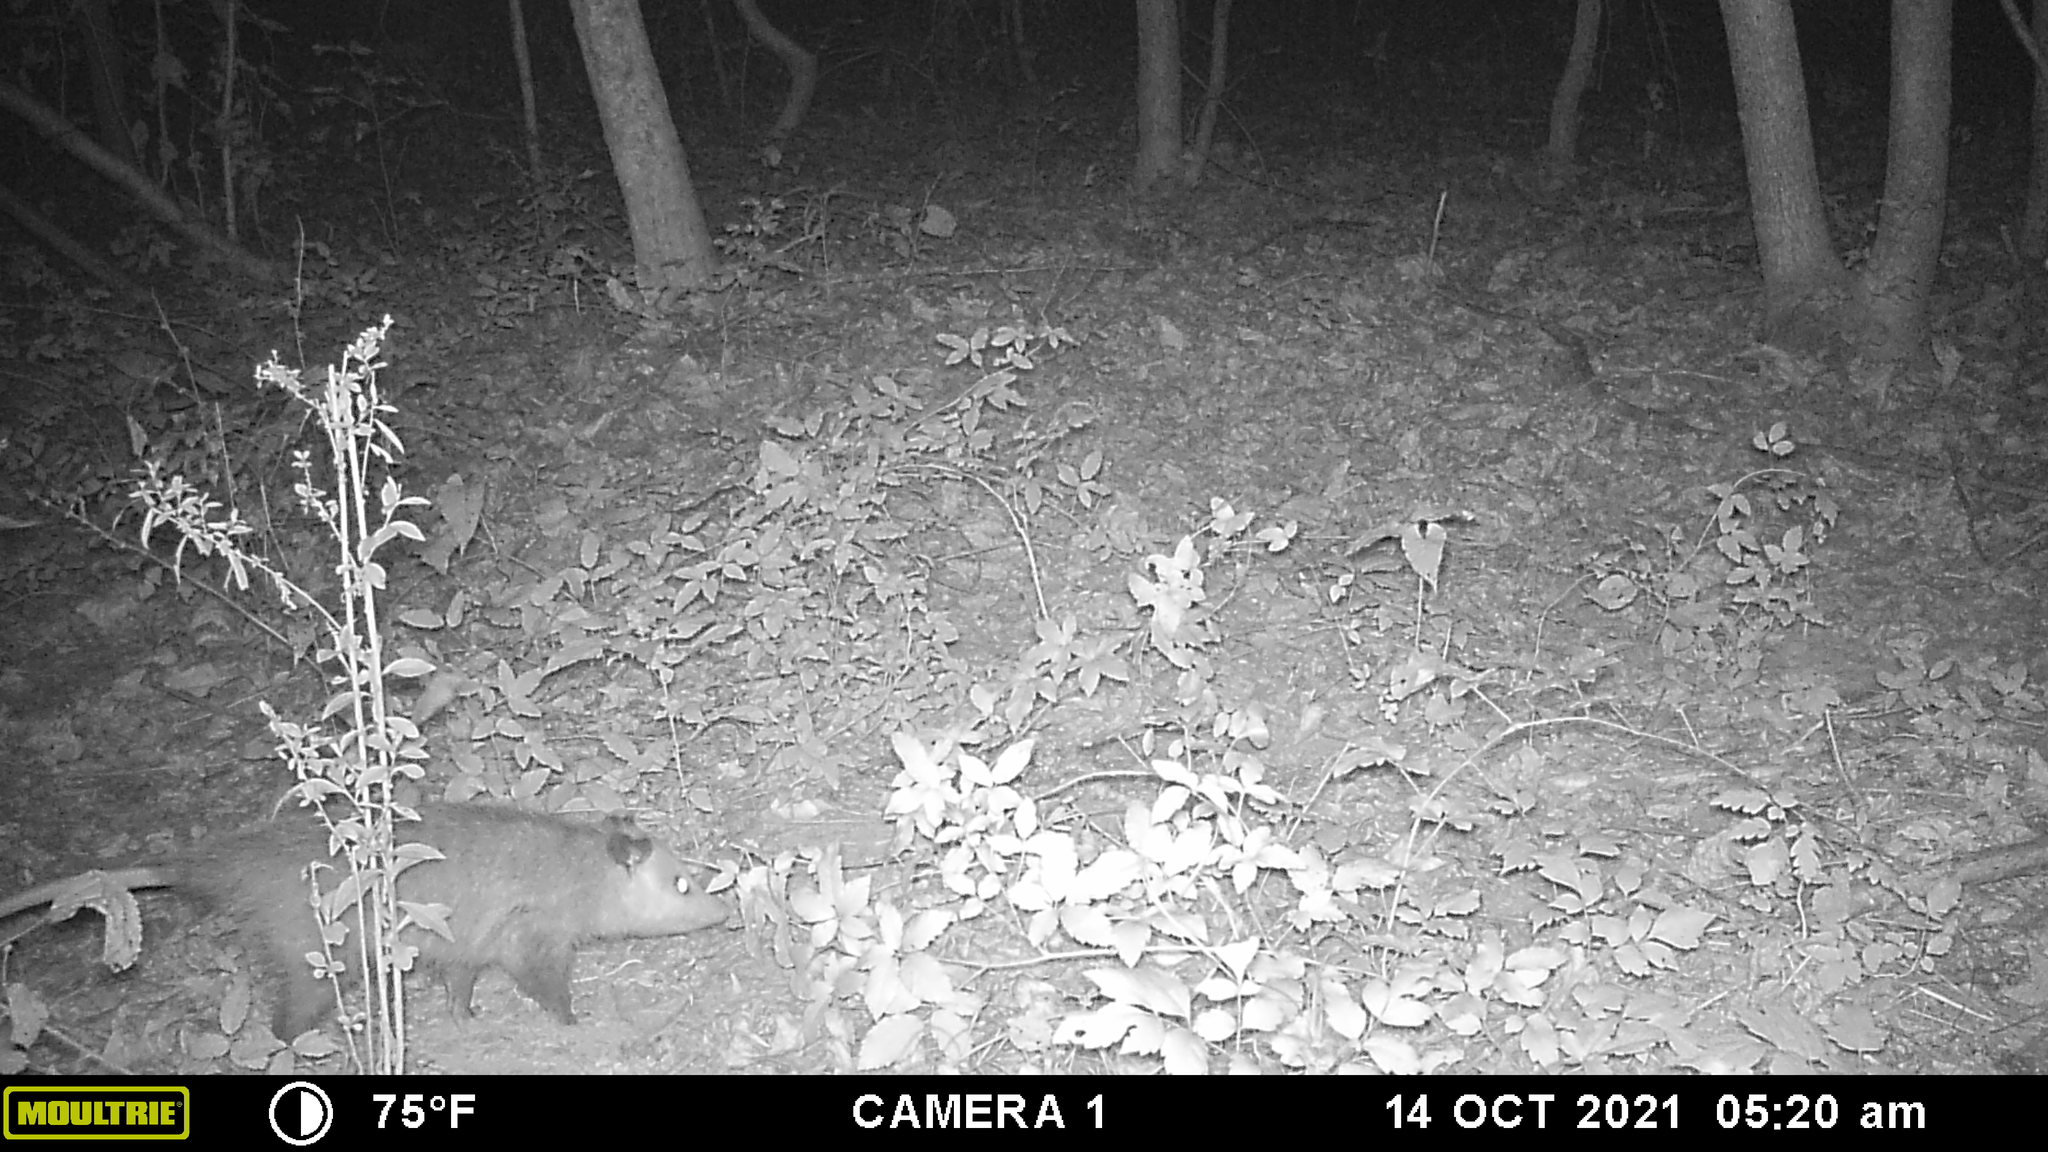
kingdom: Animalia
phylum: Chordata
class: Mammalia
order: Didelphimorphia
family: Didelphidae
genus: Didelphis
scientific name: Didelphis virginiana
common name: Virginia opossum
